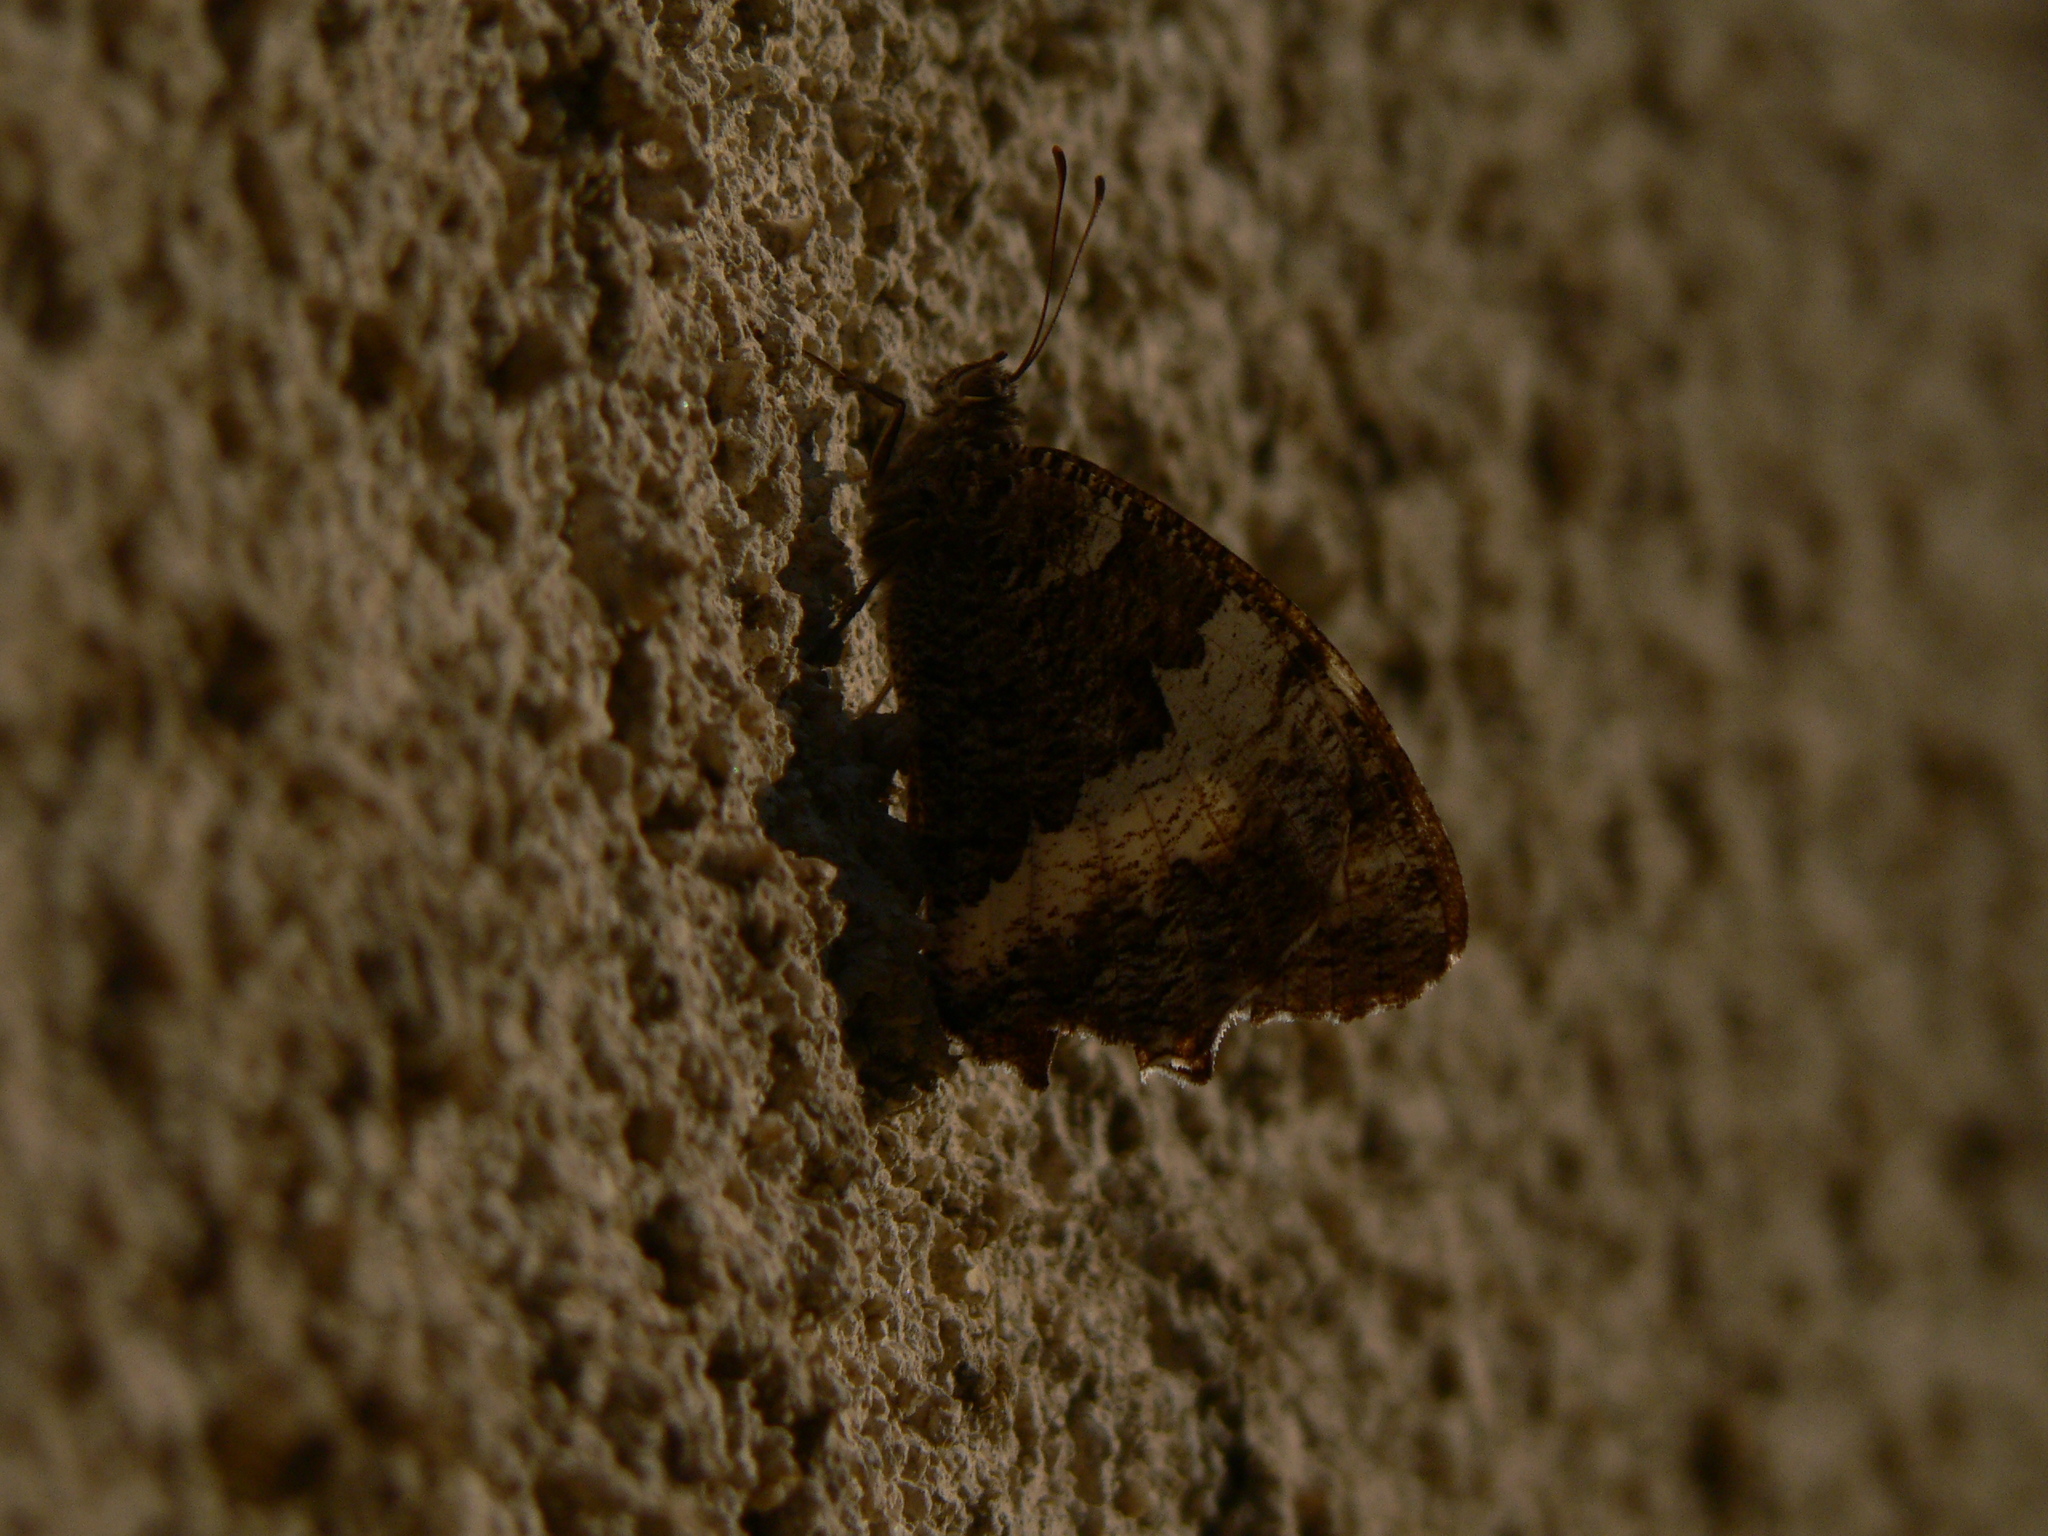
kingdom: Animalia
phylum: Arthropoda
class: Insecta
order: Lepidoptera
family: Lycaenidae
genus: Loweia
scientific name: Loweia tityrus
